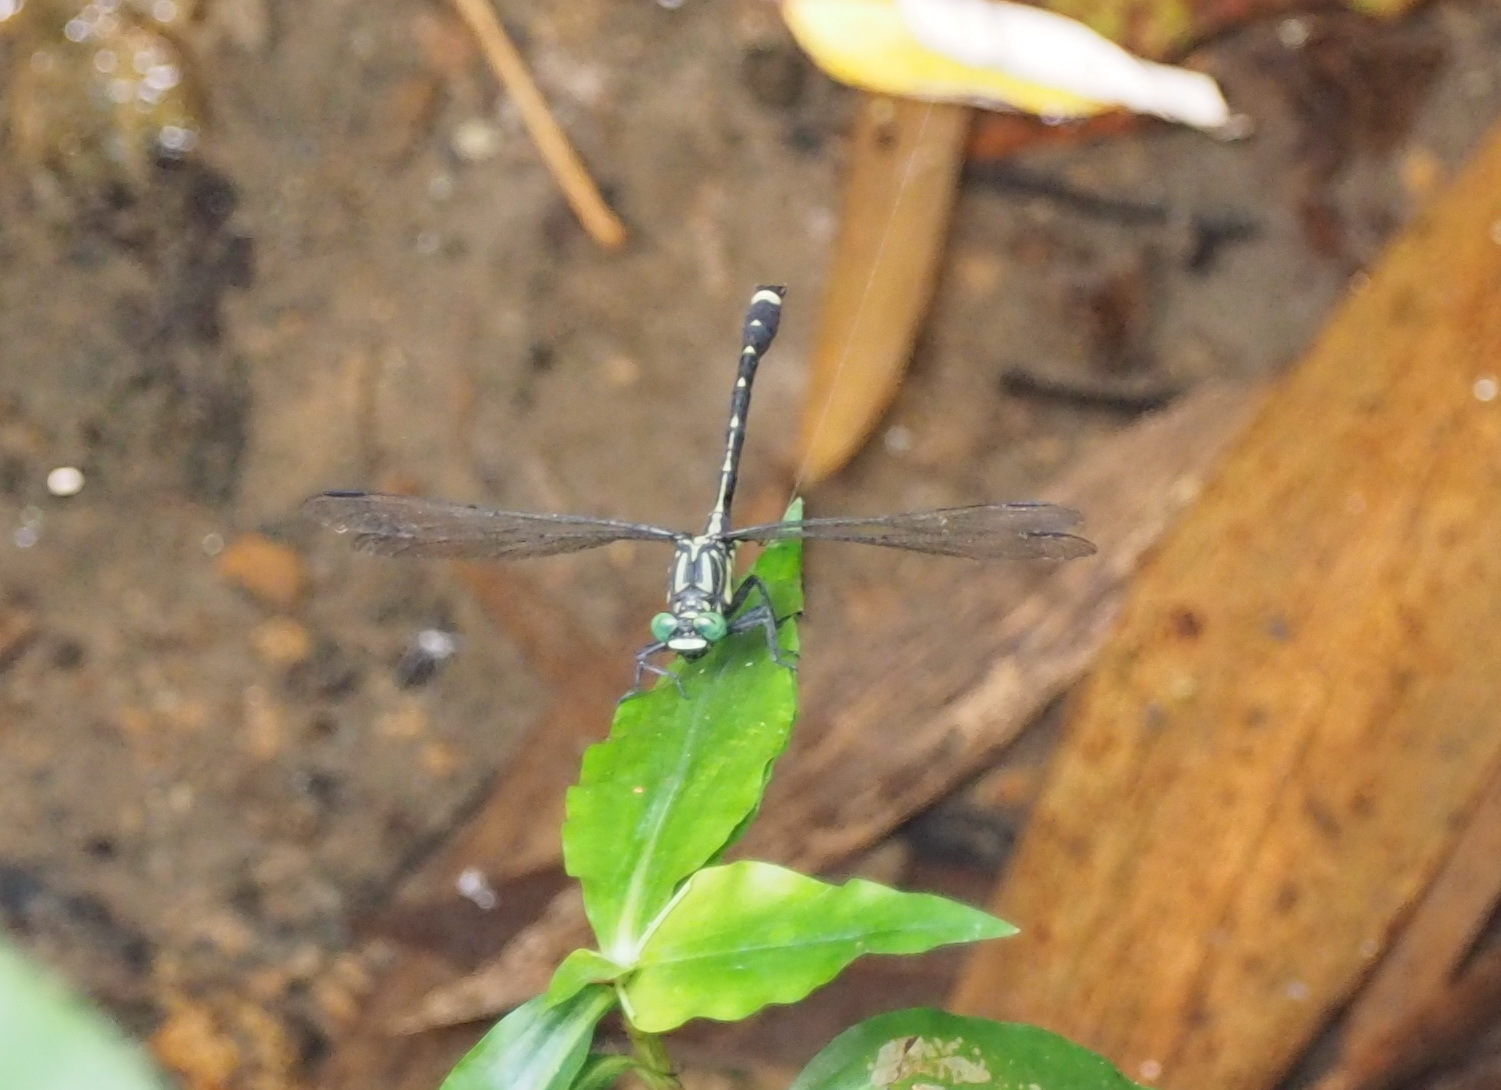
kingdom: Animalia
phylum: Arthropoda
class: Insecta
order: Odonata
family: Gomphidae
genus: Asiagomphus
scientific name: Asiagomphus septimus
